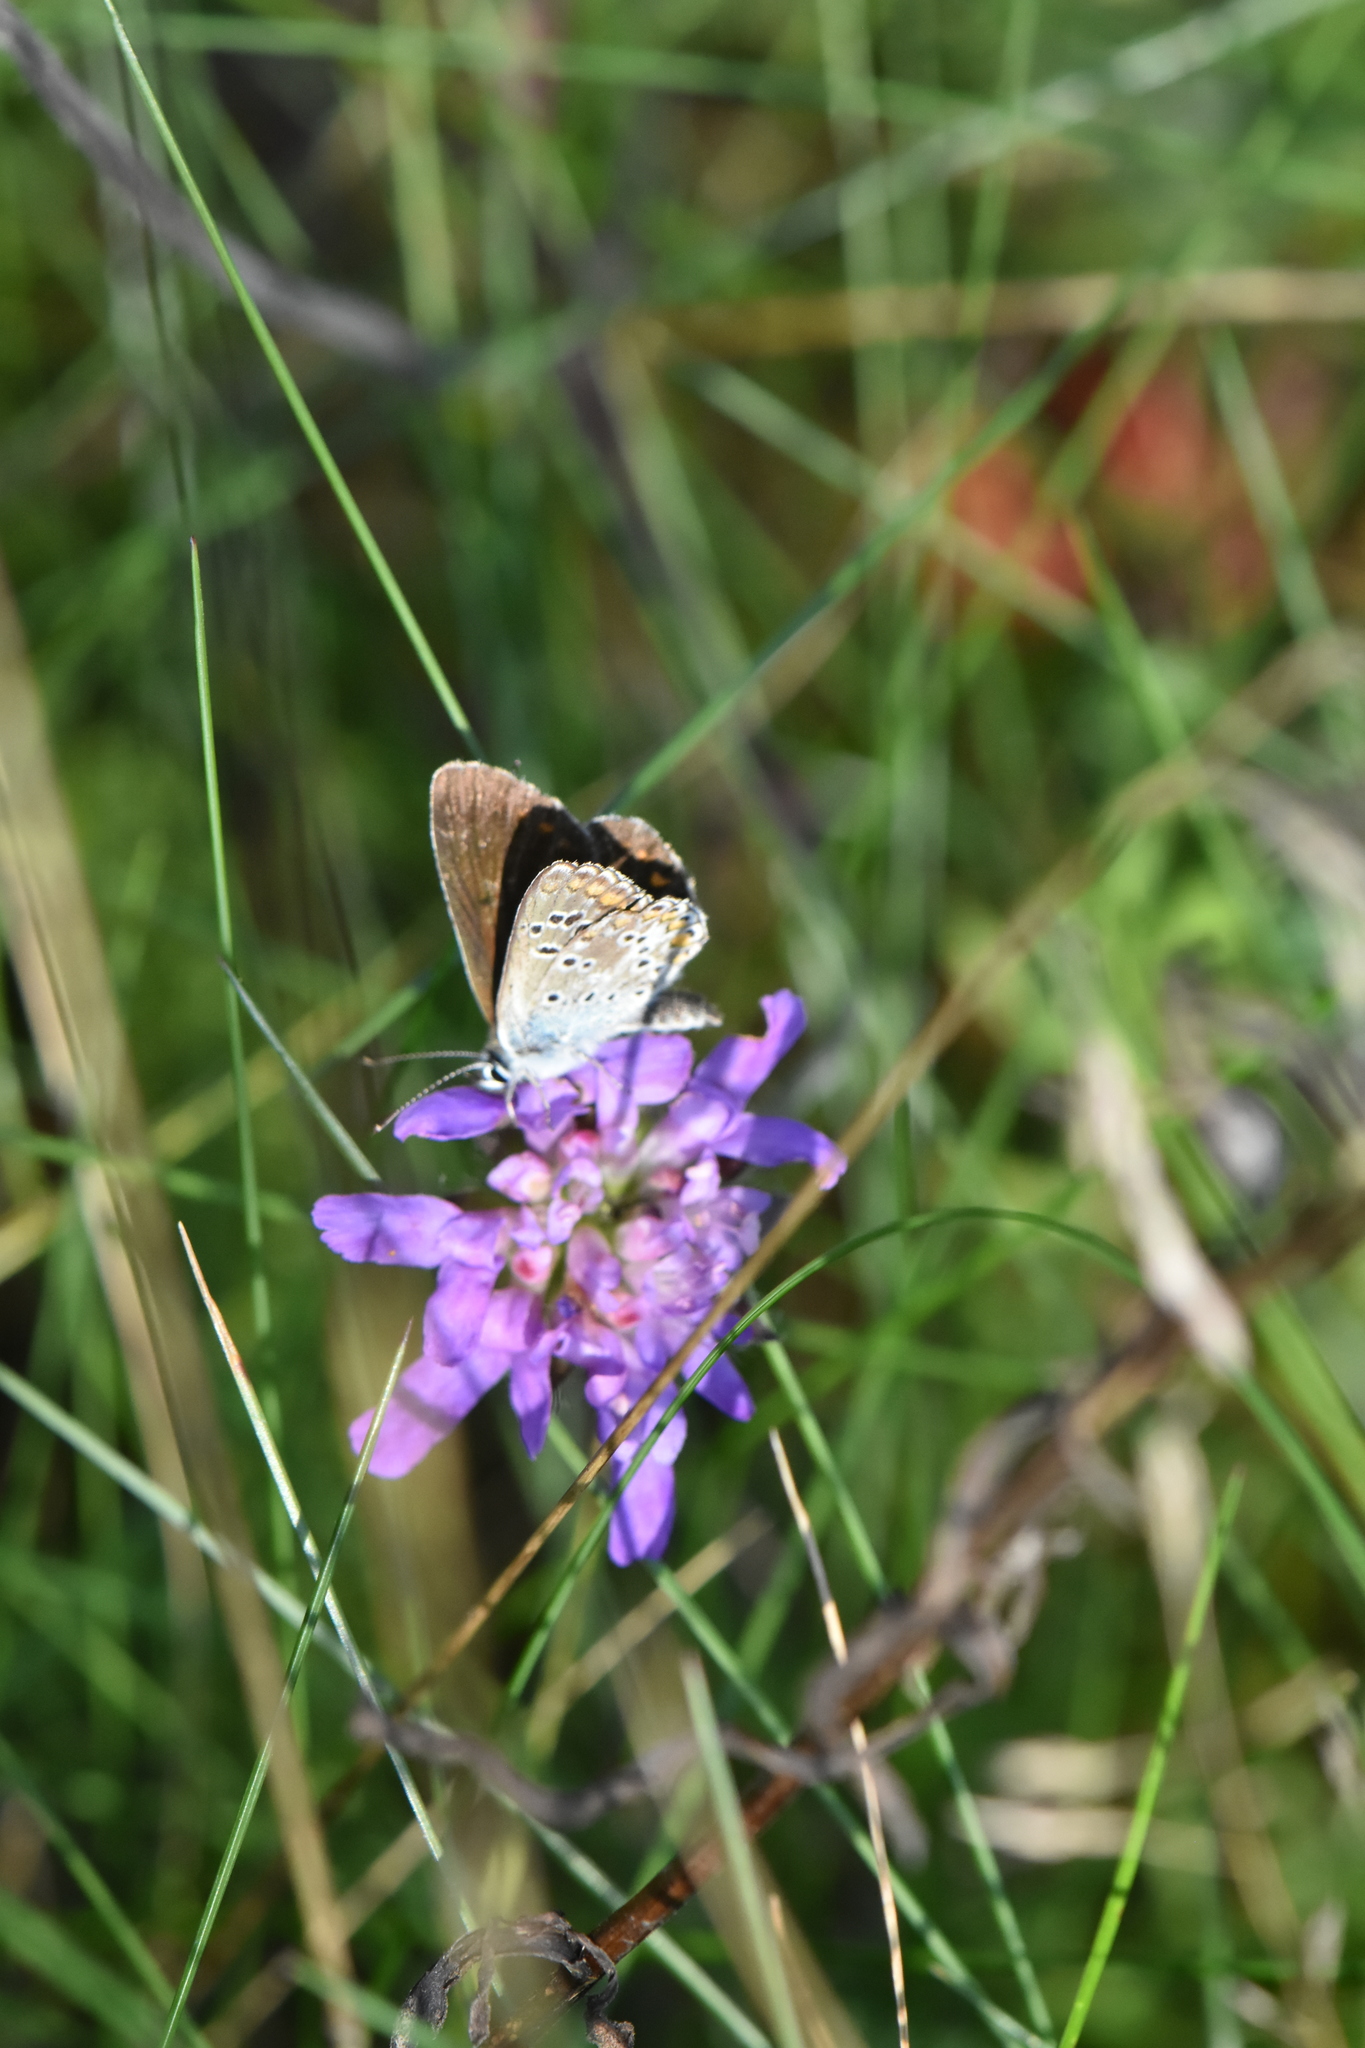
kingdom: Animalia
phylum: Arthropoda
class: Insecta
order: Lepidoptera
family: Lycaenidae
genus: Aricia
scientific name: Aricia artaxerxes
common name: Northern brown argus
